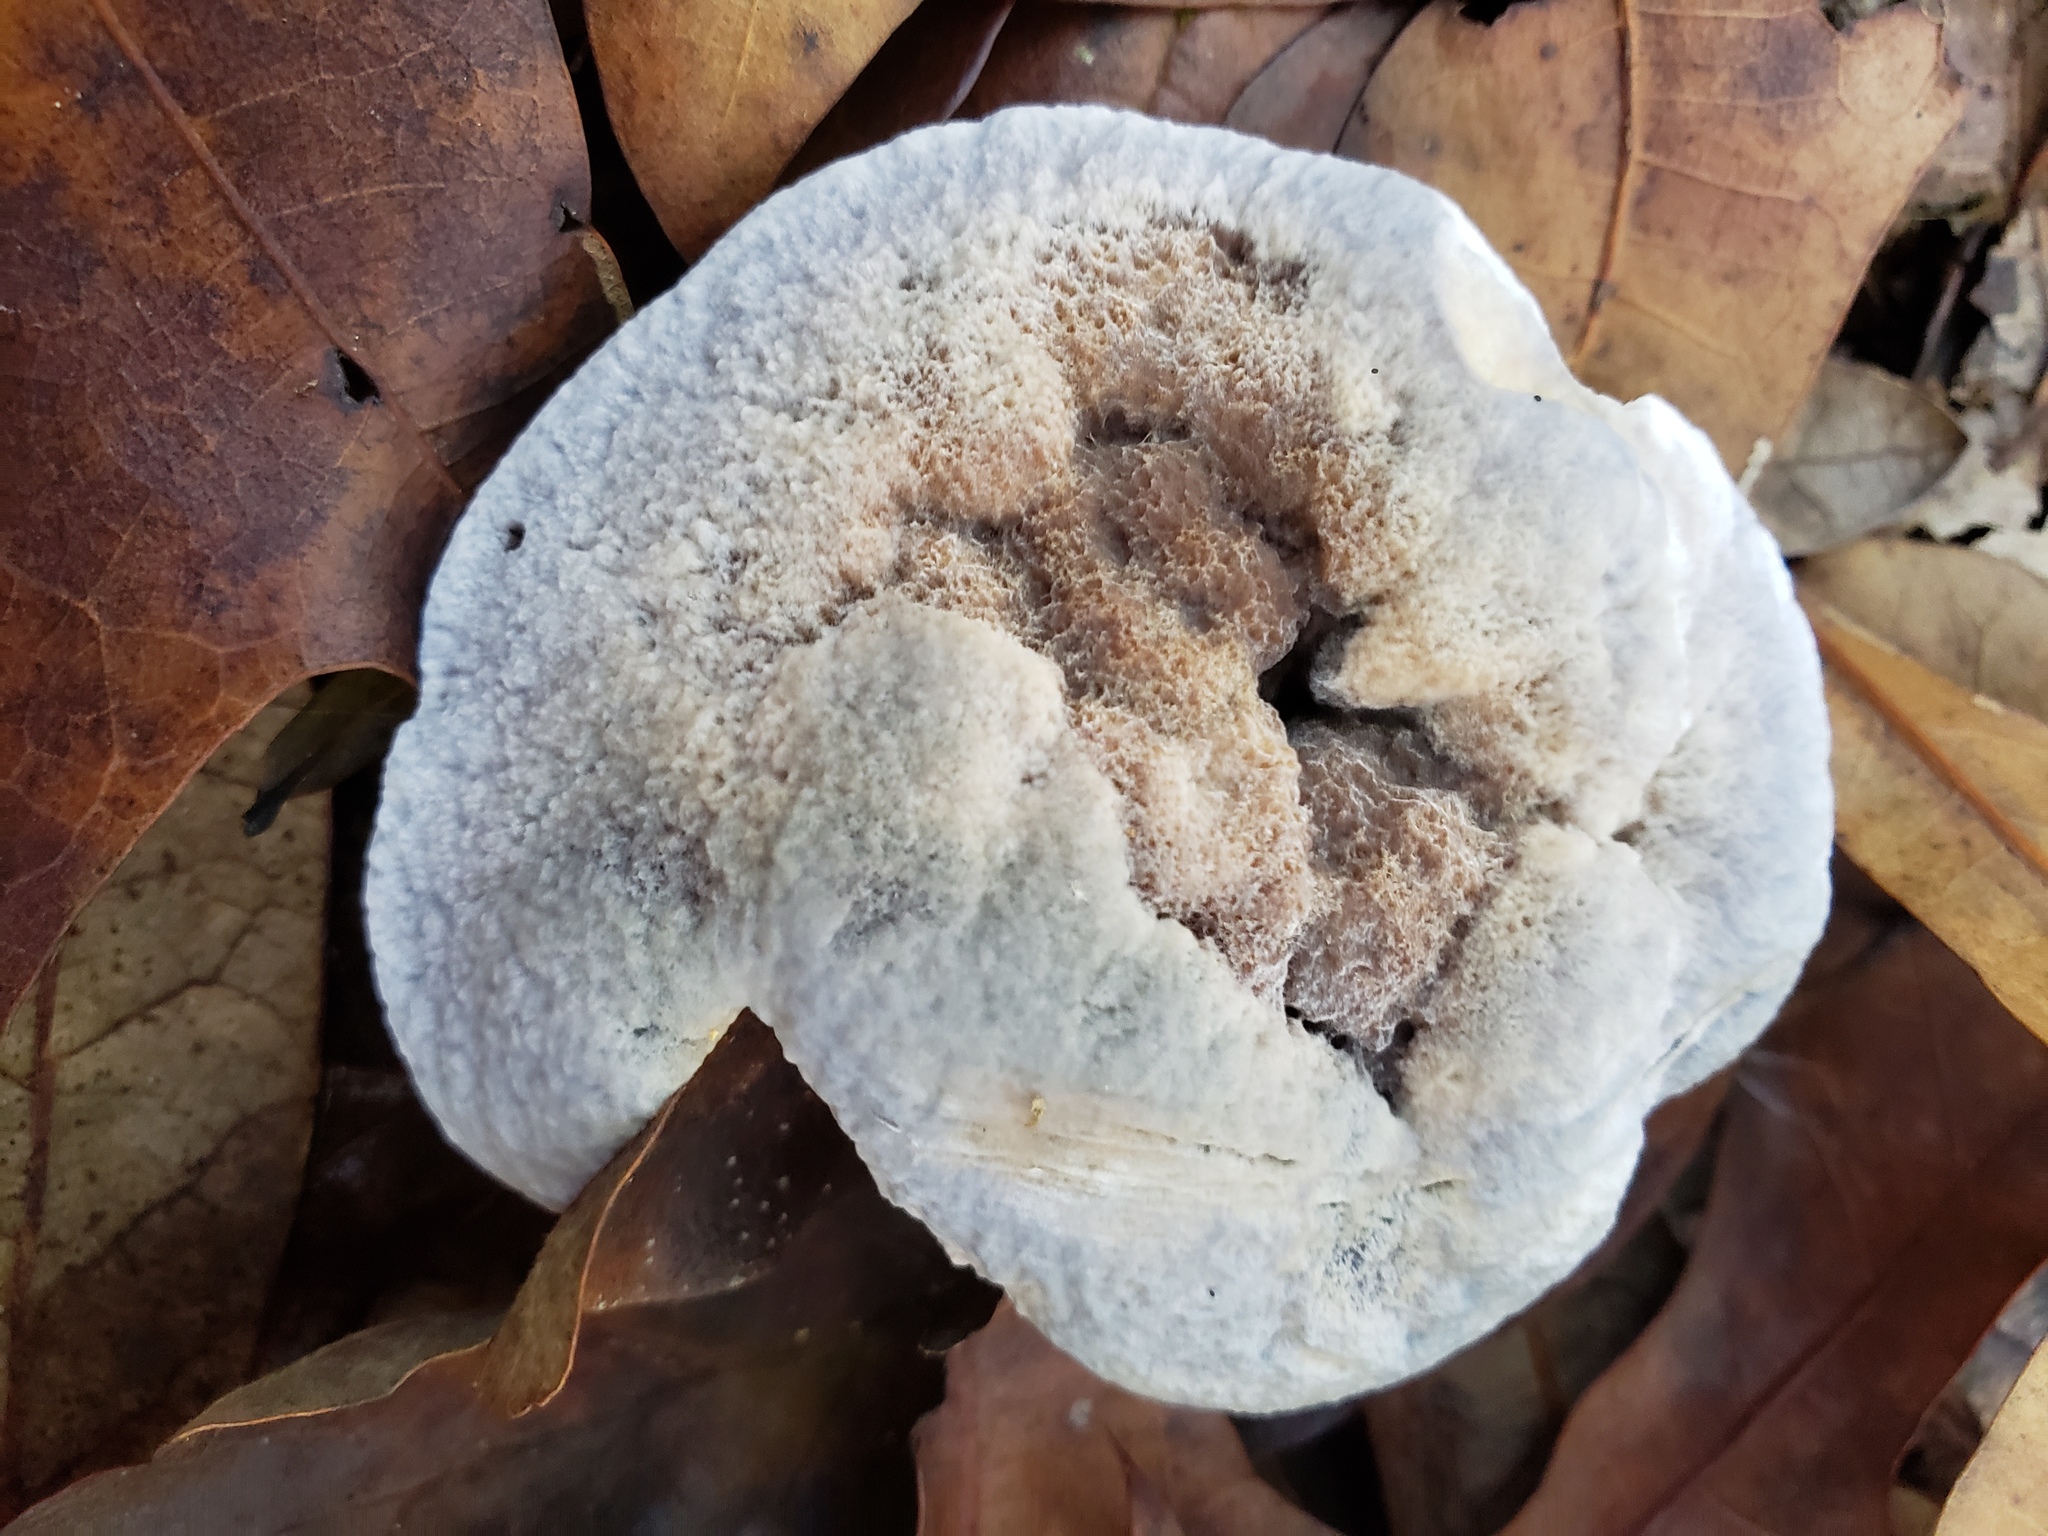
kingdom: Fungi
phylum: Basidiomycota
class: Agaricomycetes
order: Thelephorales
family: Bankeraceae
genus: Hydnellum
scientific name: Hydnellum caeruleum
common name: Blue corky spine fungus
